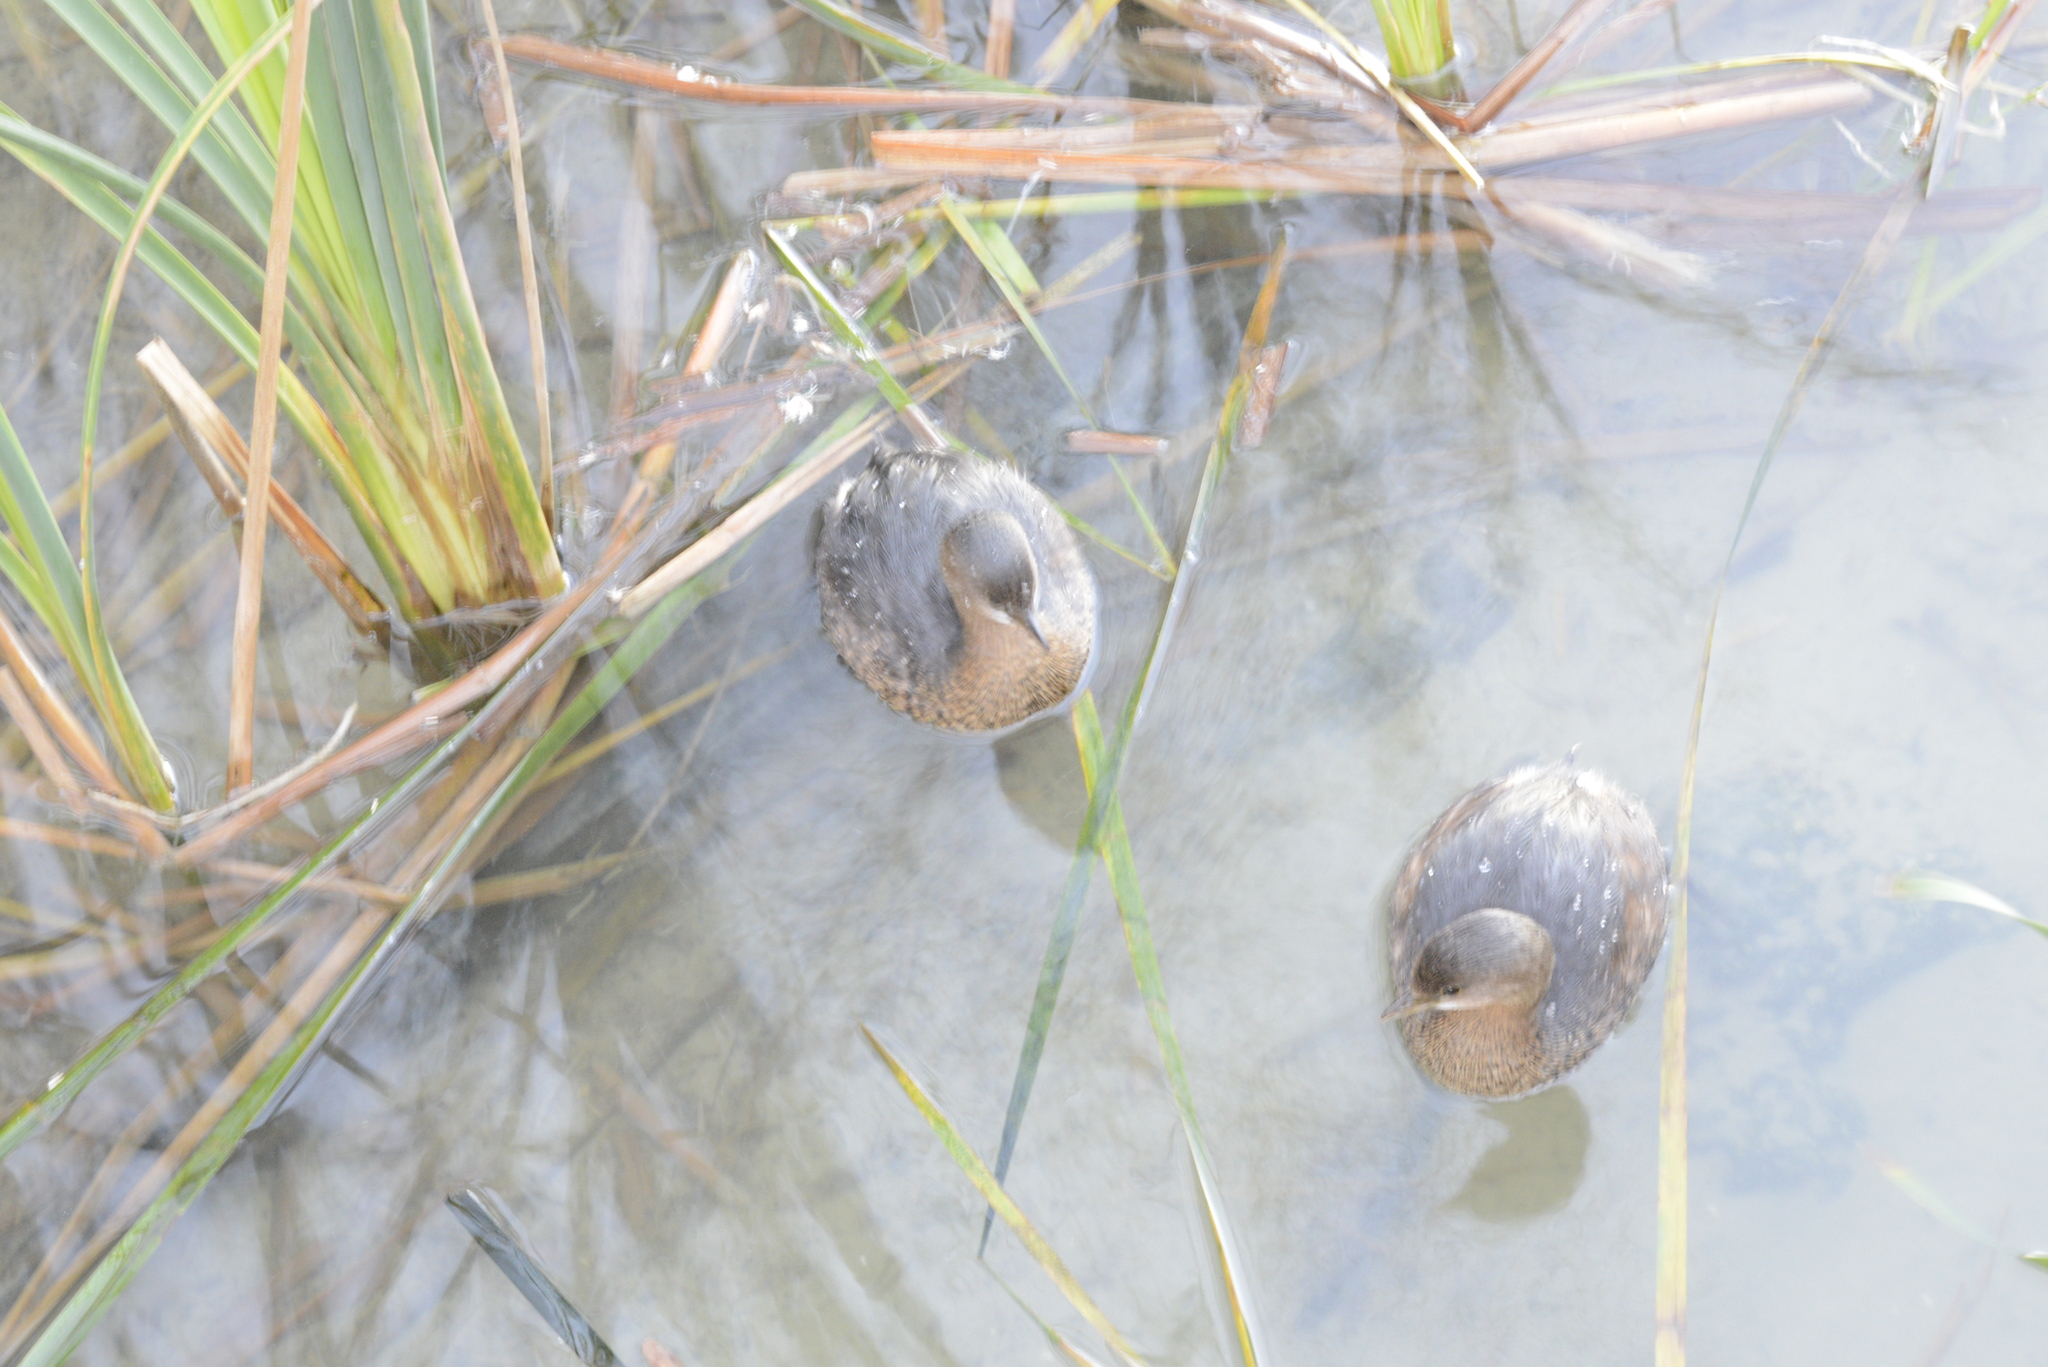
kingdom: Animalia
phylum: Chordata
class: Aves
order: Podicipediformes
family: Podicipedidae
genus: Podilymbus
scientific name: Podilymbus podiceps
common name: Pied-billed grebe
